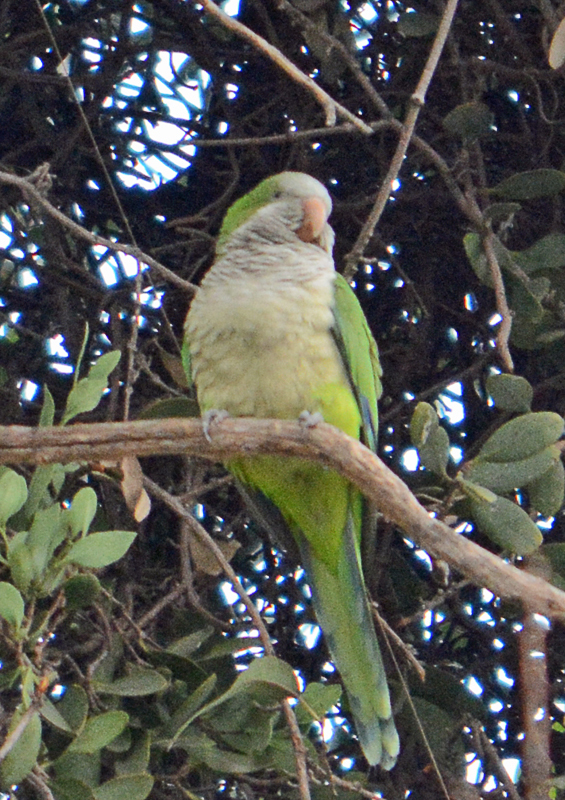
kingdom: Animalia
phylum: Chordata
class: Aves
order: Psittaciformes
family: Psittacidae
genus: Myiopsitta
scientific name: Myiopsitta monachus
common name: Monk parakeet
